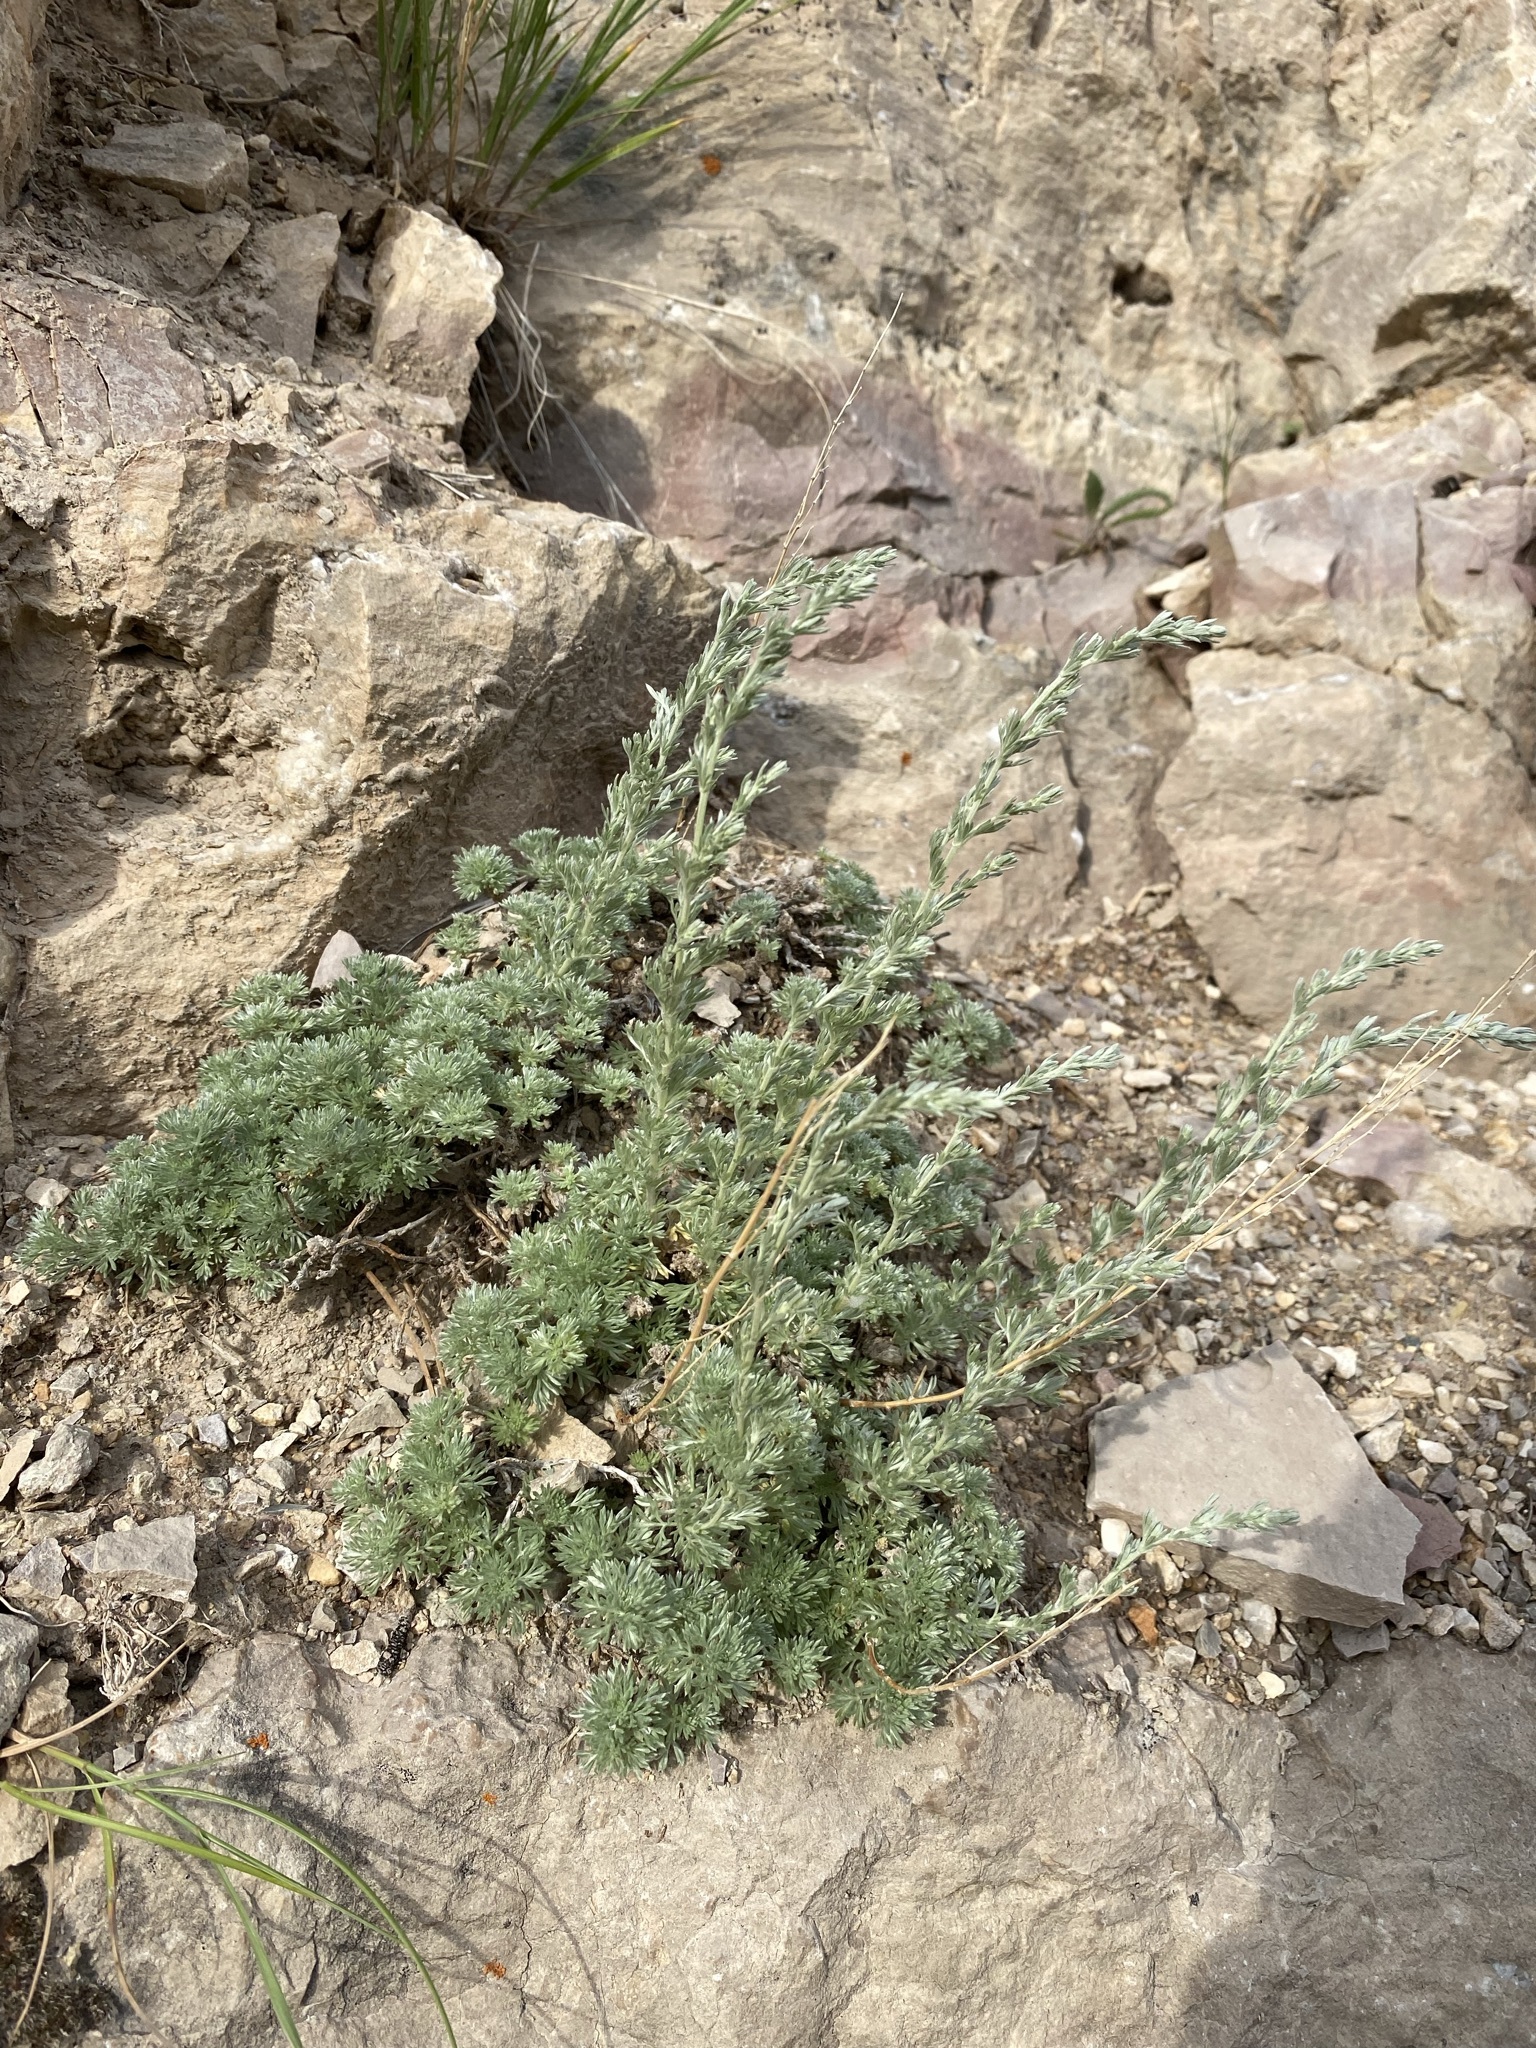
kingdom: Plantae
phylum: Tracheophyta
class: Magnoliopsida
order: Asterales
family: Asteraceae
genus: Artemisia
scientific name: Artemisia frigida
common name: Prairie sagewort
